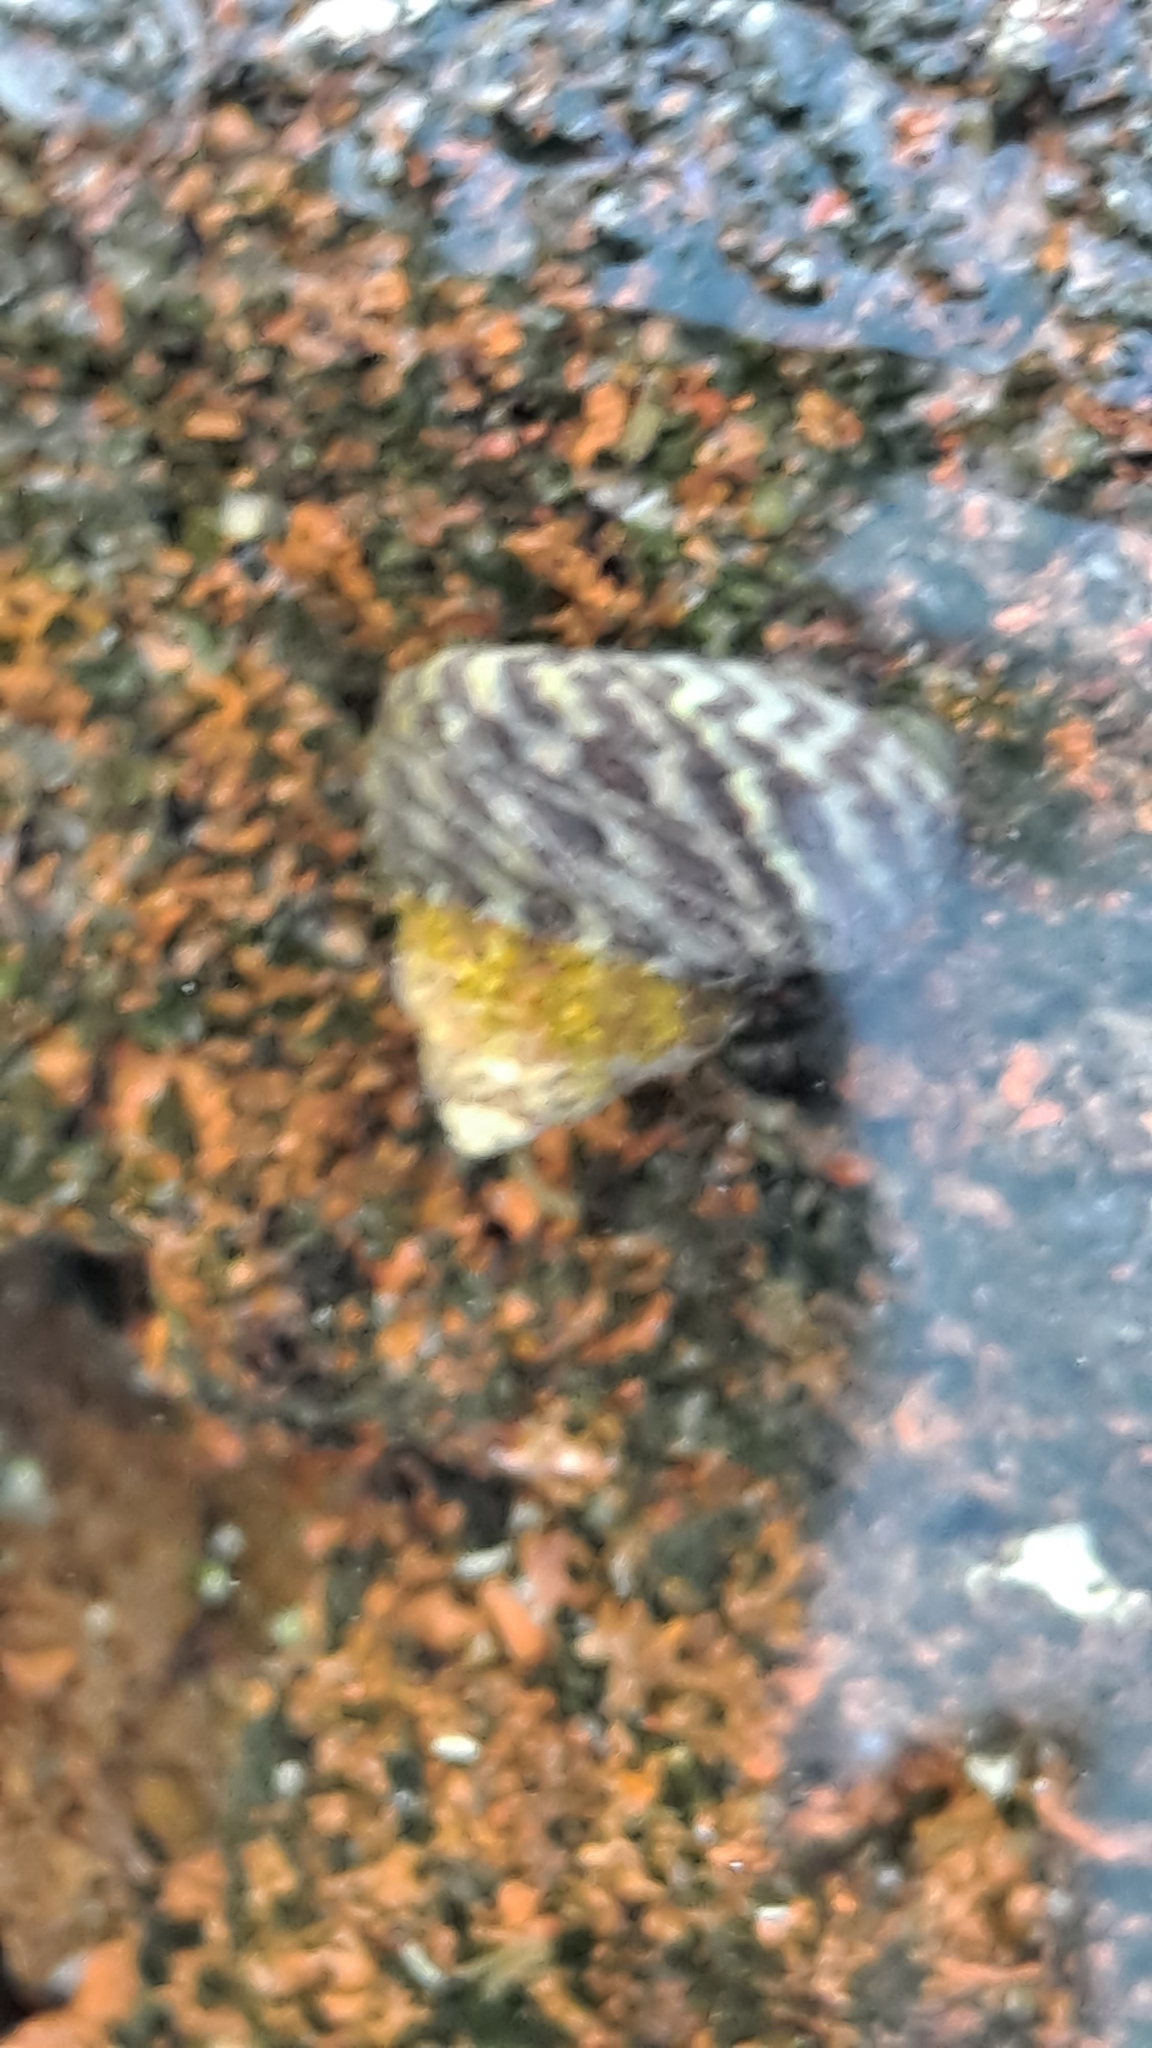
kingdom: Animalia
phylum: Mollusca
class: Gastropoda
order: Trochida
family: Trochidae
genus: Phorcus
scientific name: Phorcus sauciatus
